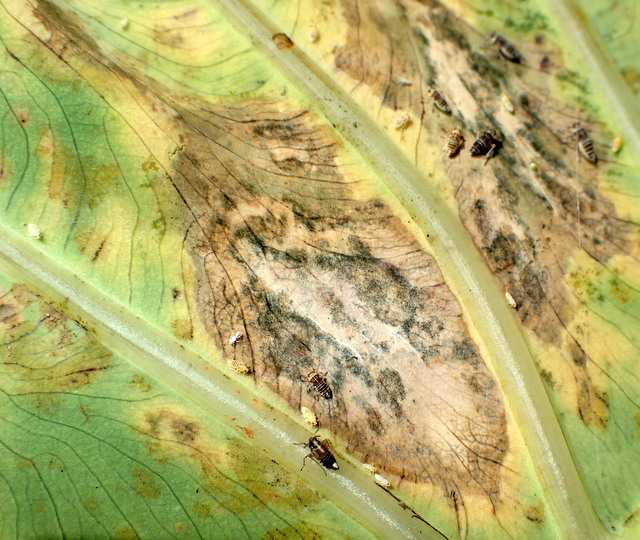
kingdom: Animalia
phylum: Arthropoda
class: Insecta
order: Hemiptera
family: Delphacidae
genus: Tarophagus
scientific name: Tarophagus colocasiae
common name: Taro planthopper
